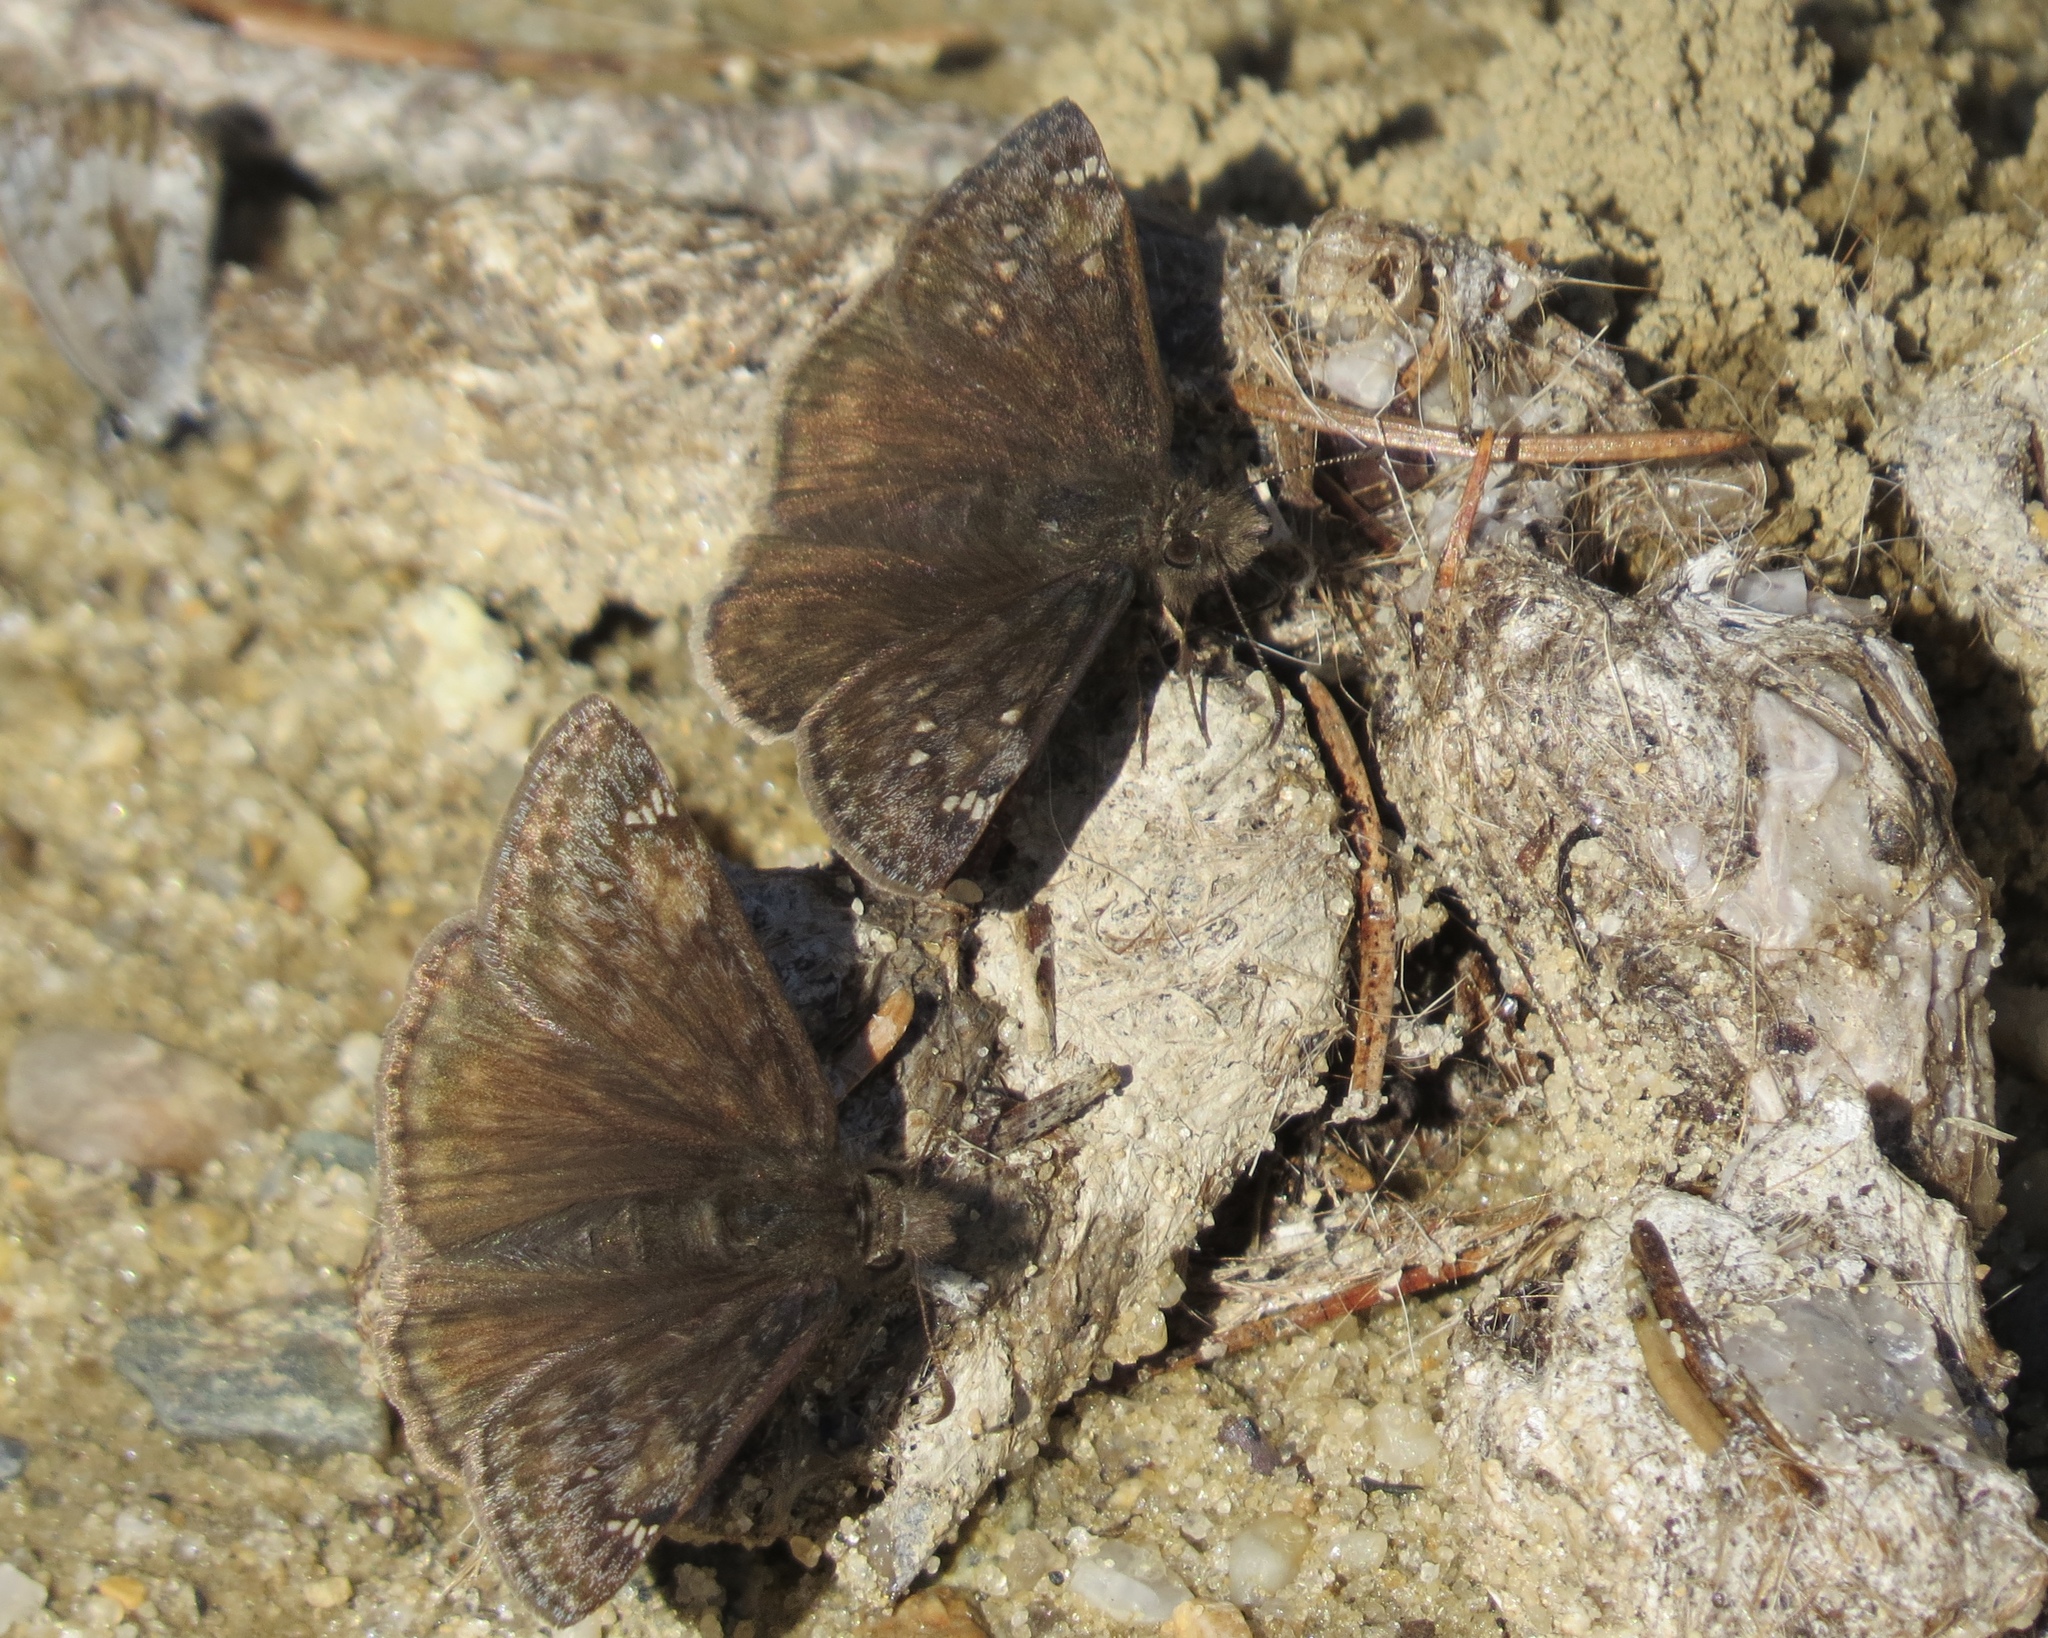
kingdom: Animalia
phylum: Arthropoda
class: Insecta
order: Lepidoptera
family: Hesperiidae
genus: Erynnis
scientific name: Erynnis juvenalis
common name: Juvenal's duskywing
